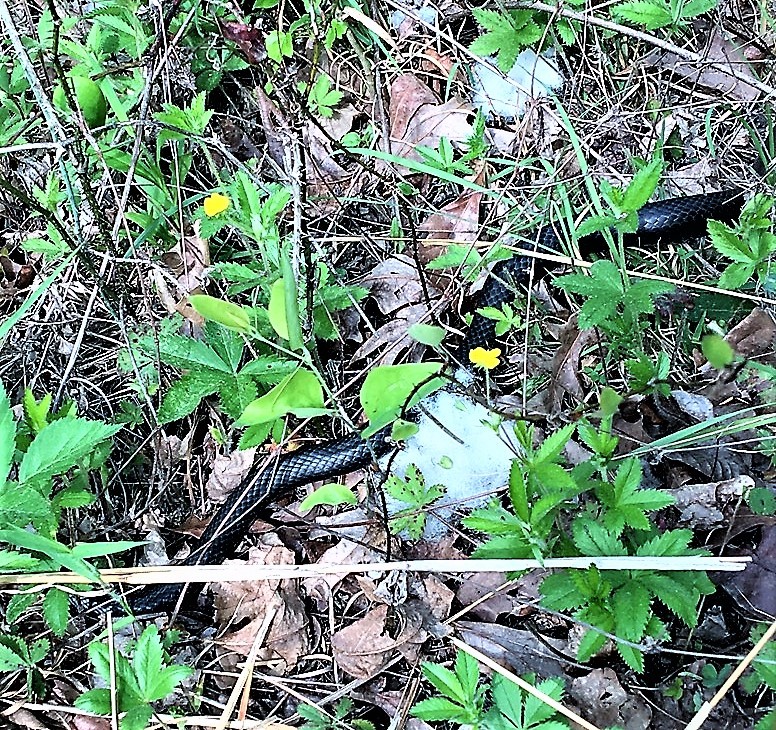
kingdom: Animalia
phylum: Chordata
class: Squamata
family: Colubridae
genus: Pantherophis
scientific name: Pantherophis obsoletus
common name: Black rat snake
